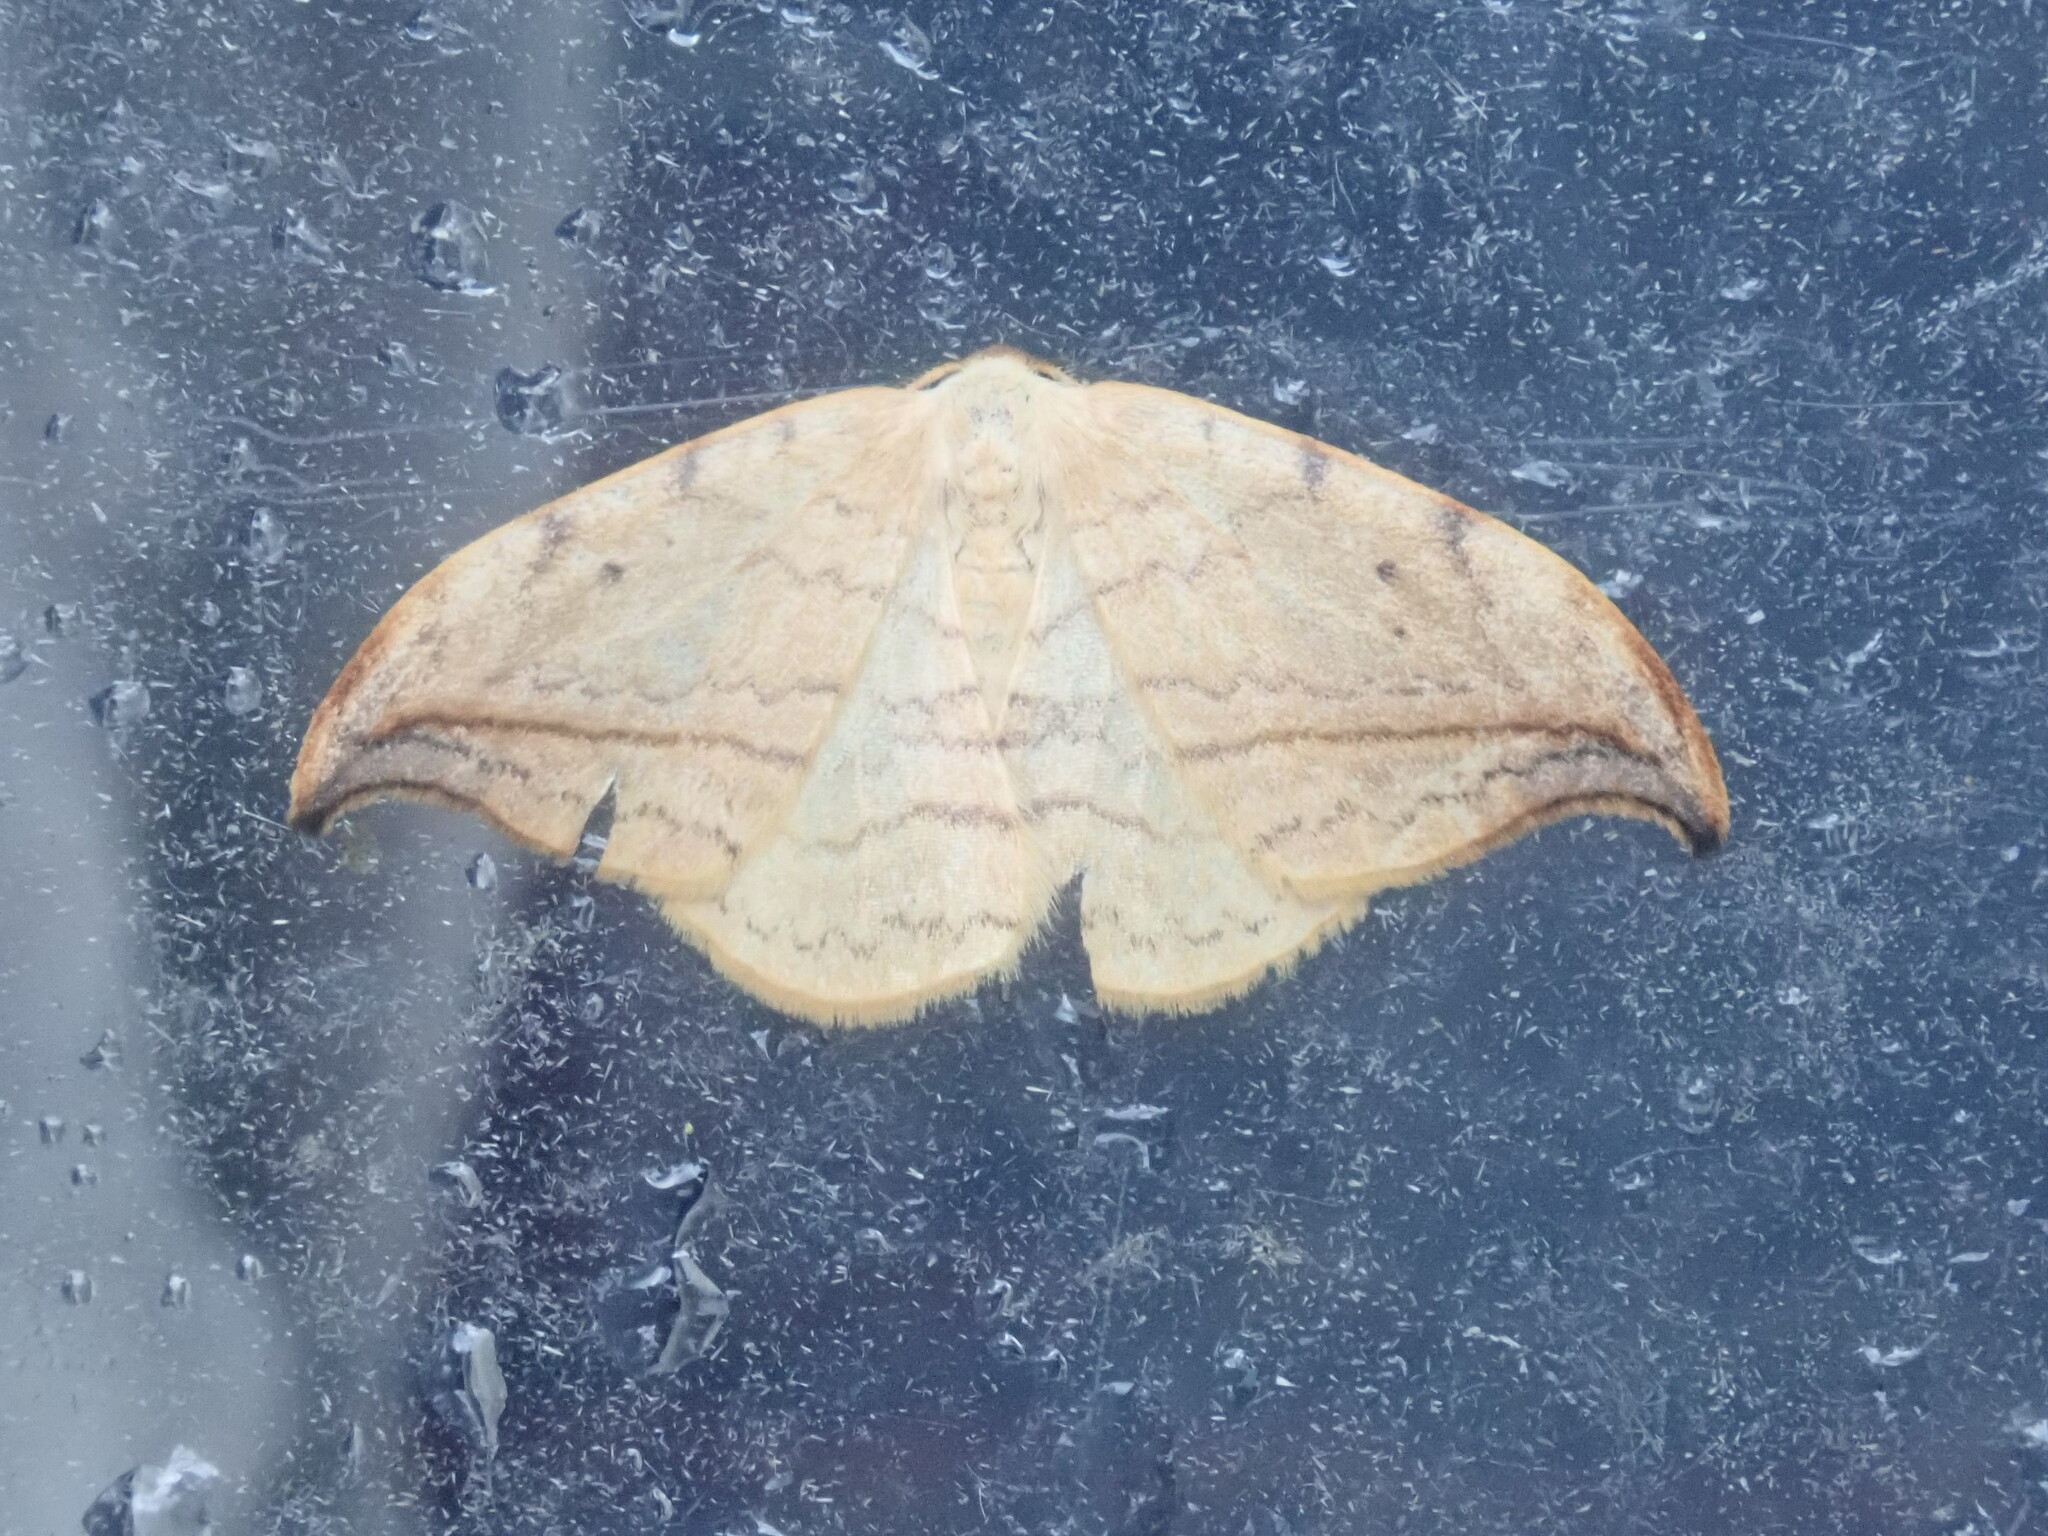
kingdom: Animalia
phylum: Arthropoda
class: Insecta
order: Lepidoptera
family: Drepanidae
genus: Drepana
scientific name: Drepana arcuata
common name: Arched hooktip moth
